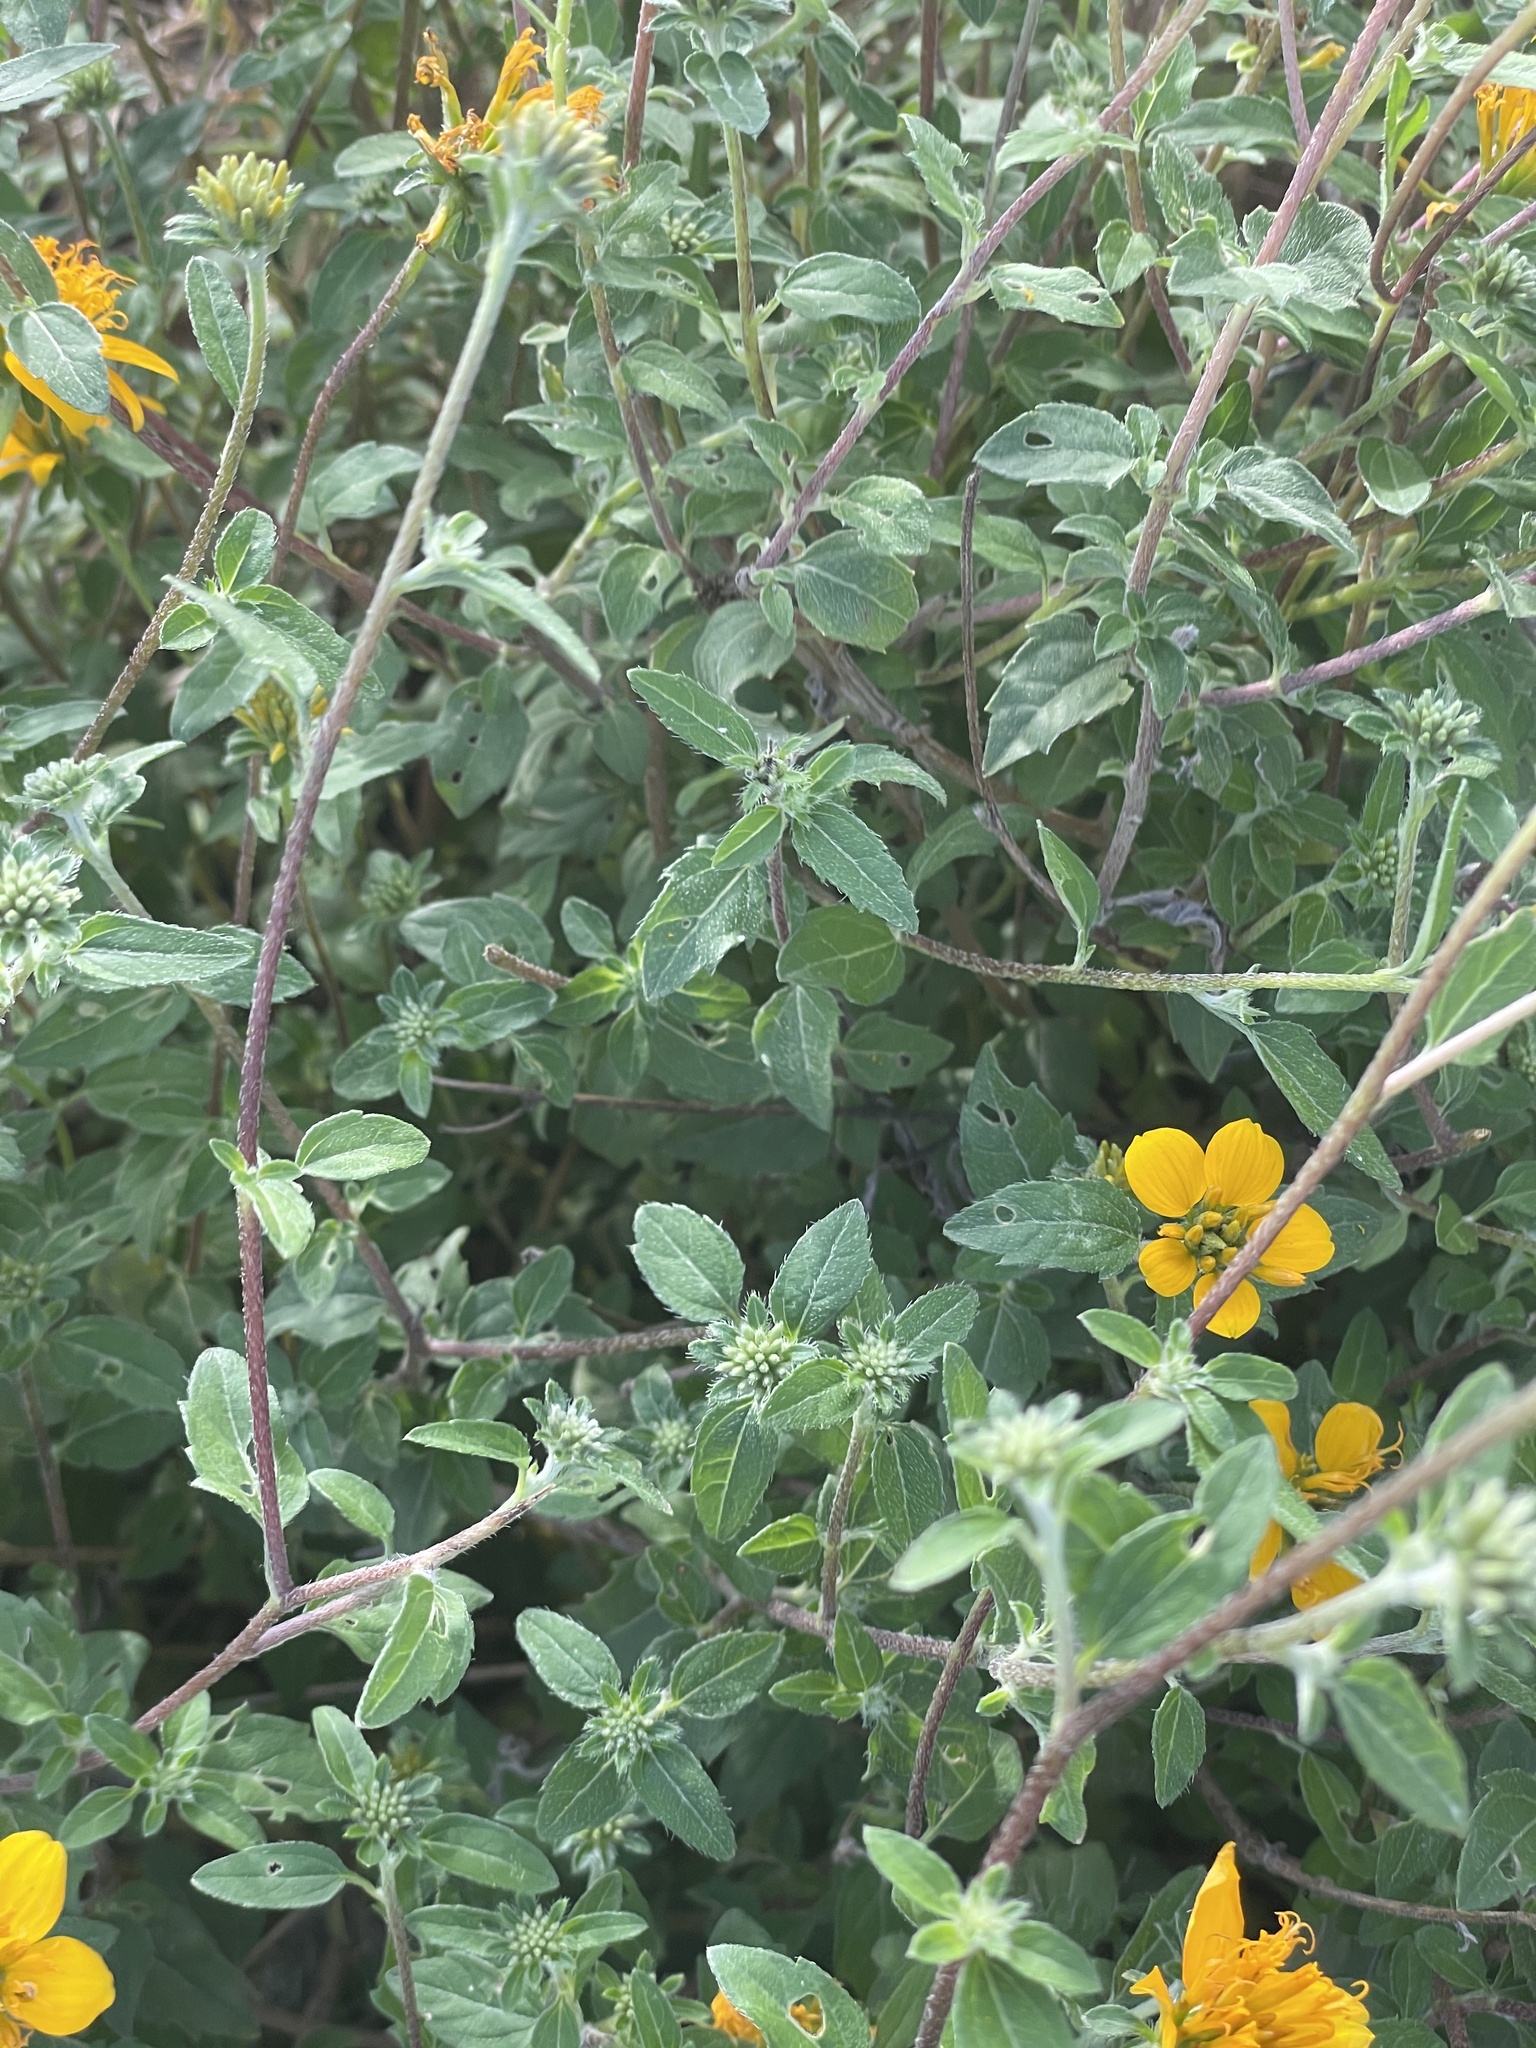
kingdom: Plantae
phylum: Tracheophyta
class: Magnoliopsida
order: Asterales
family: Asteraceae
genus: Sclerocarpus
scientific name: Sclerocarpus uniserialis
